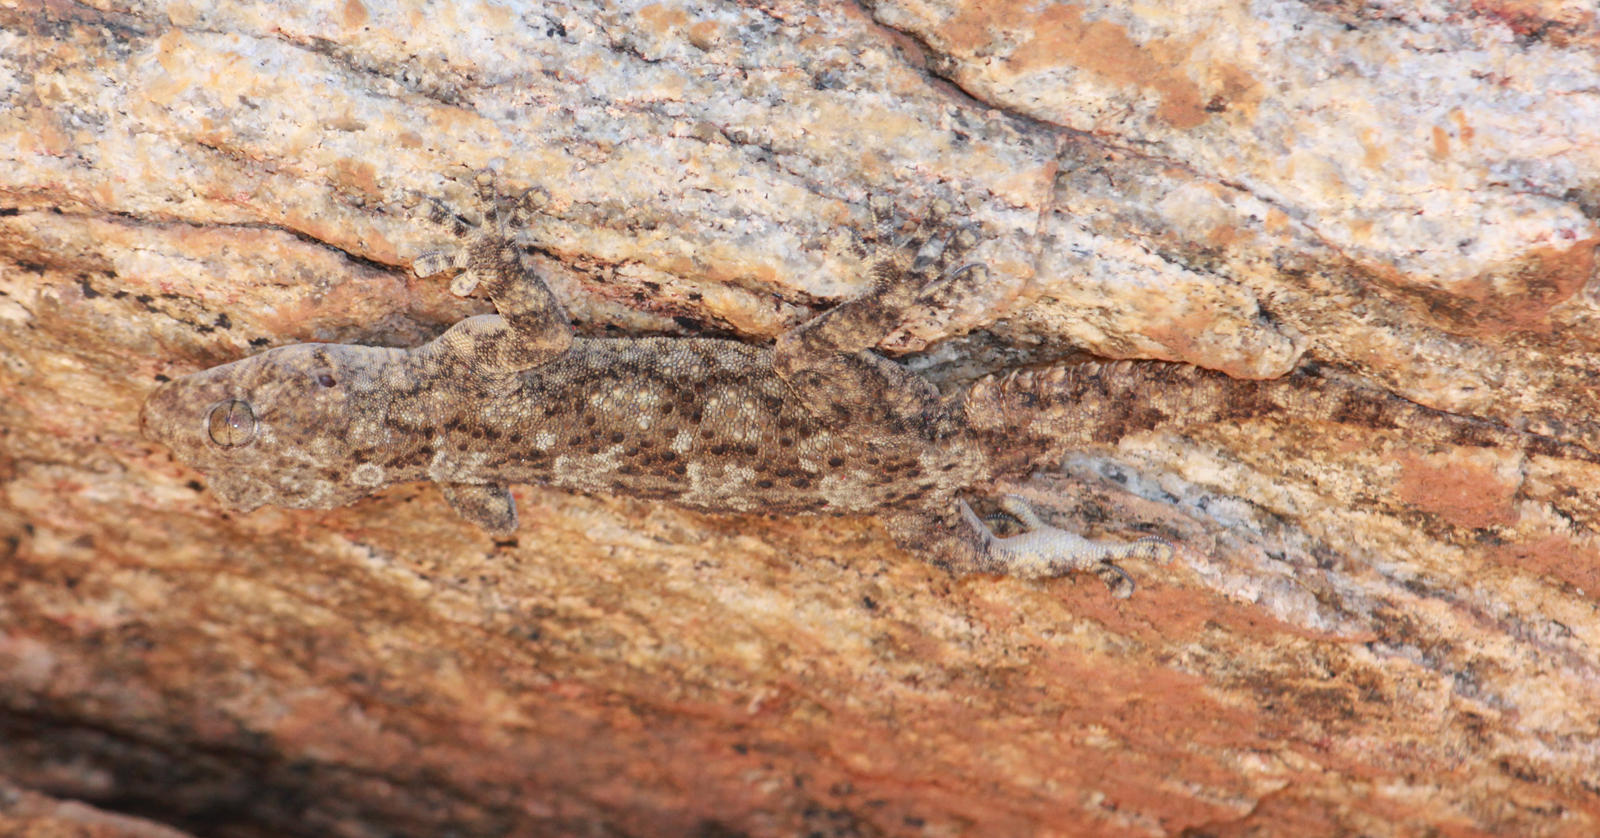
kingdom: Animalia
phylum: Chordata
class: Squamata
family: Gekkonidae
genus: Pachydactylus
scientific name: Pachydactylus namaquensis
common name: Namaqua gecko
